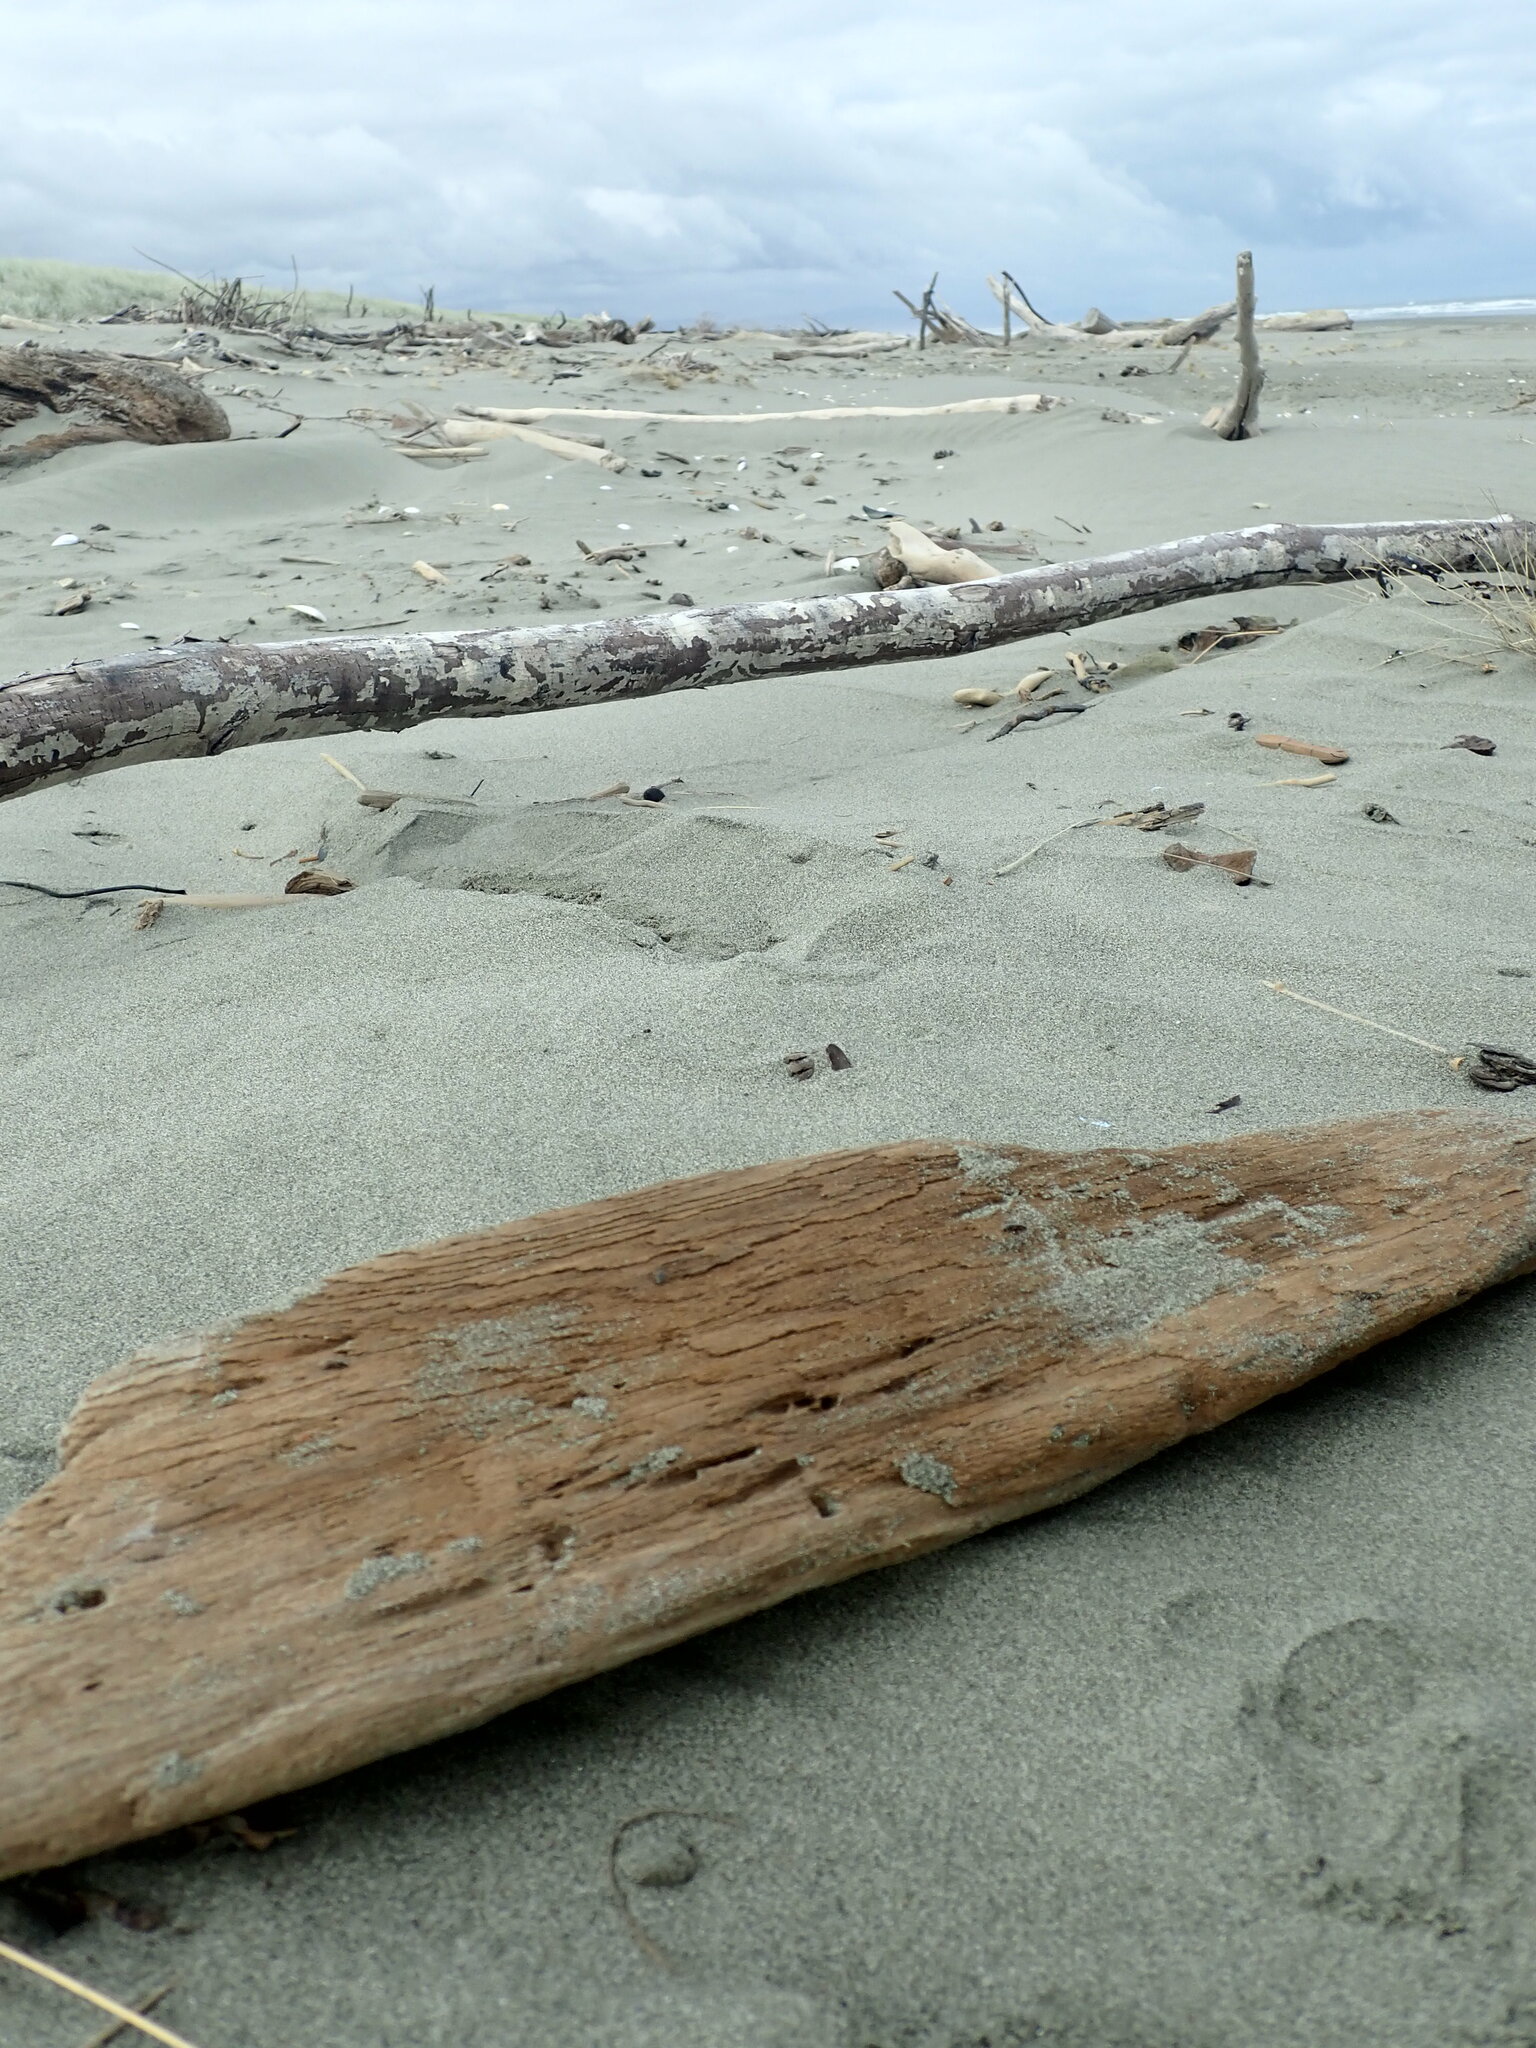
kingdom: Animalia
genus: Lagrioda
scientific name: Lagrioda brounii
